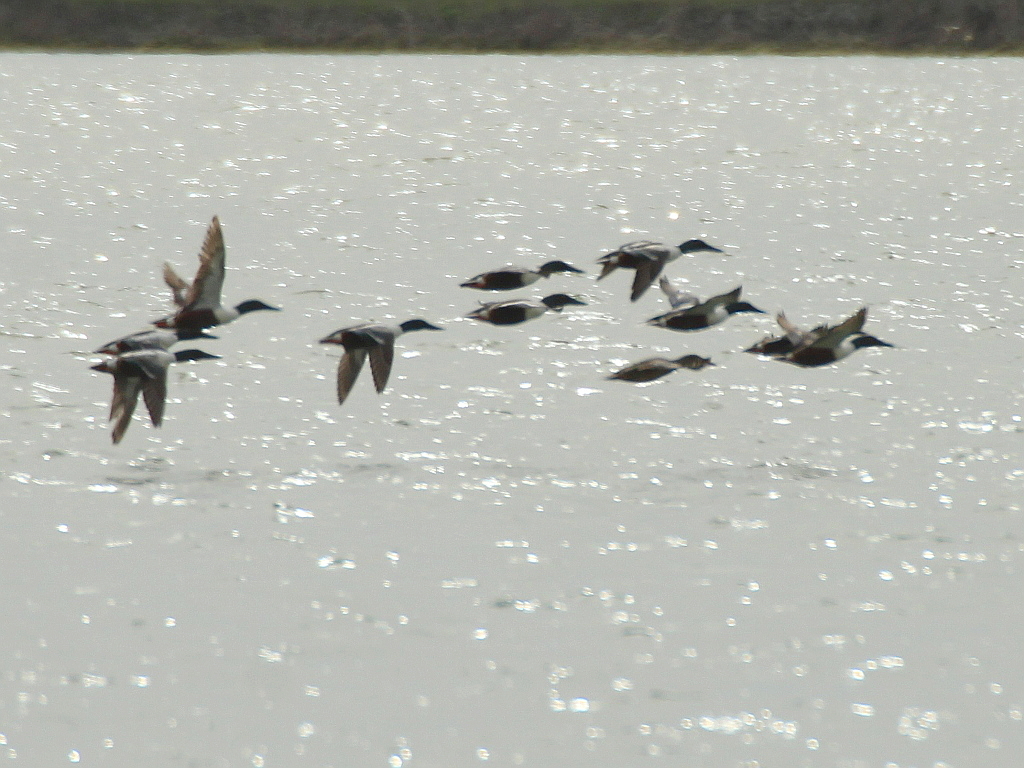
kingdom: Animalia
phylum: Chordata
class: Aves
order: Anseriformes
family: Anatidae
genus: Spatula
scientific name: Spatula clypeata
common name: Northern shoveler
